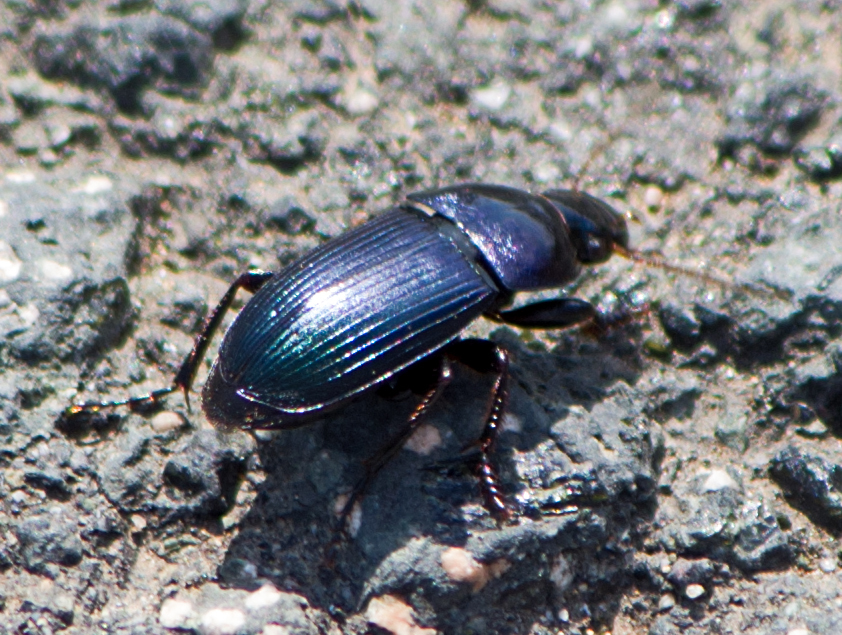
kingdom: Animalia
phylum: Arthropoda
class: Insecta
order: Coleoptera
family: Carabidae
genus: Harpalus
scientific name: Harpalus rubripes
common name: Red-legged harp ground beetle
